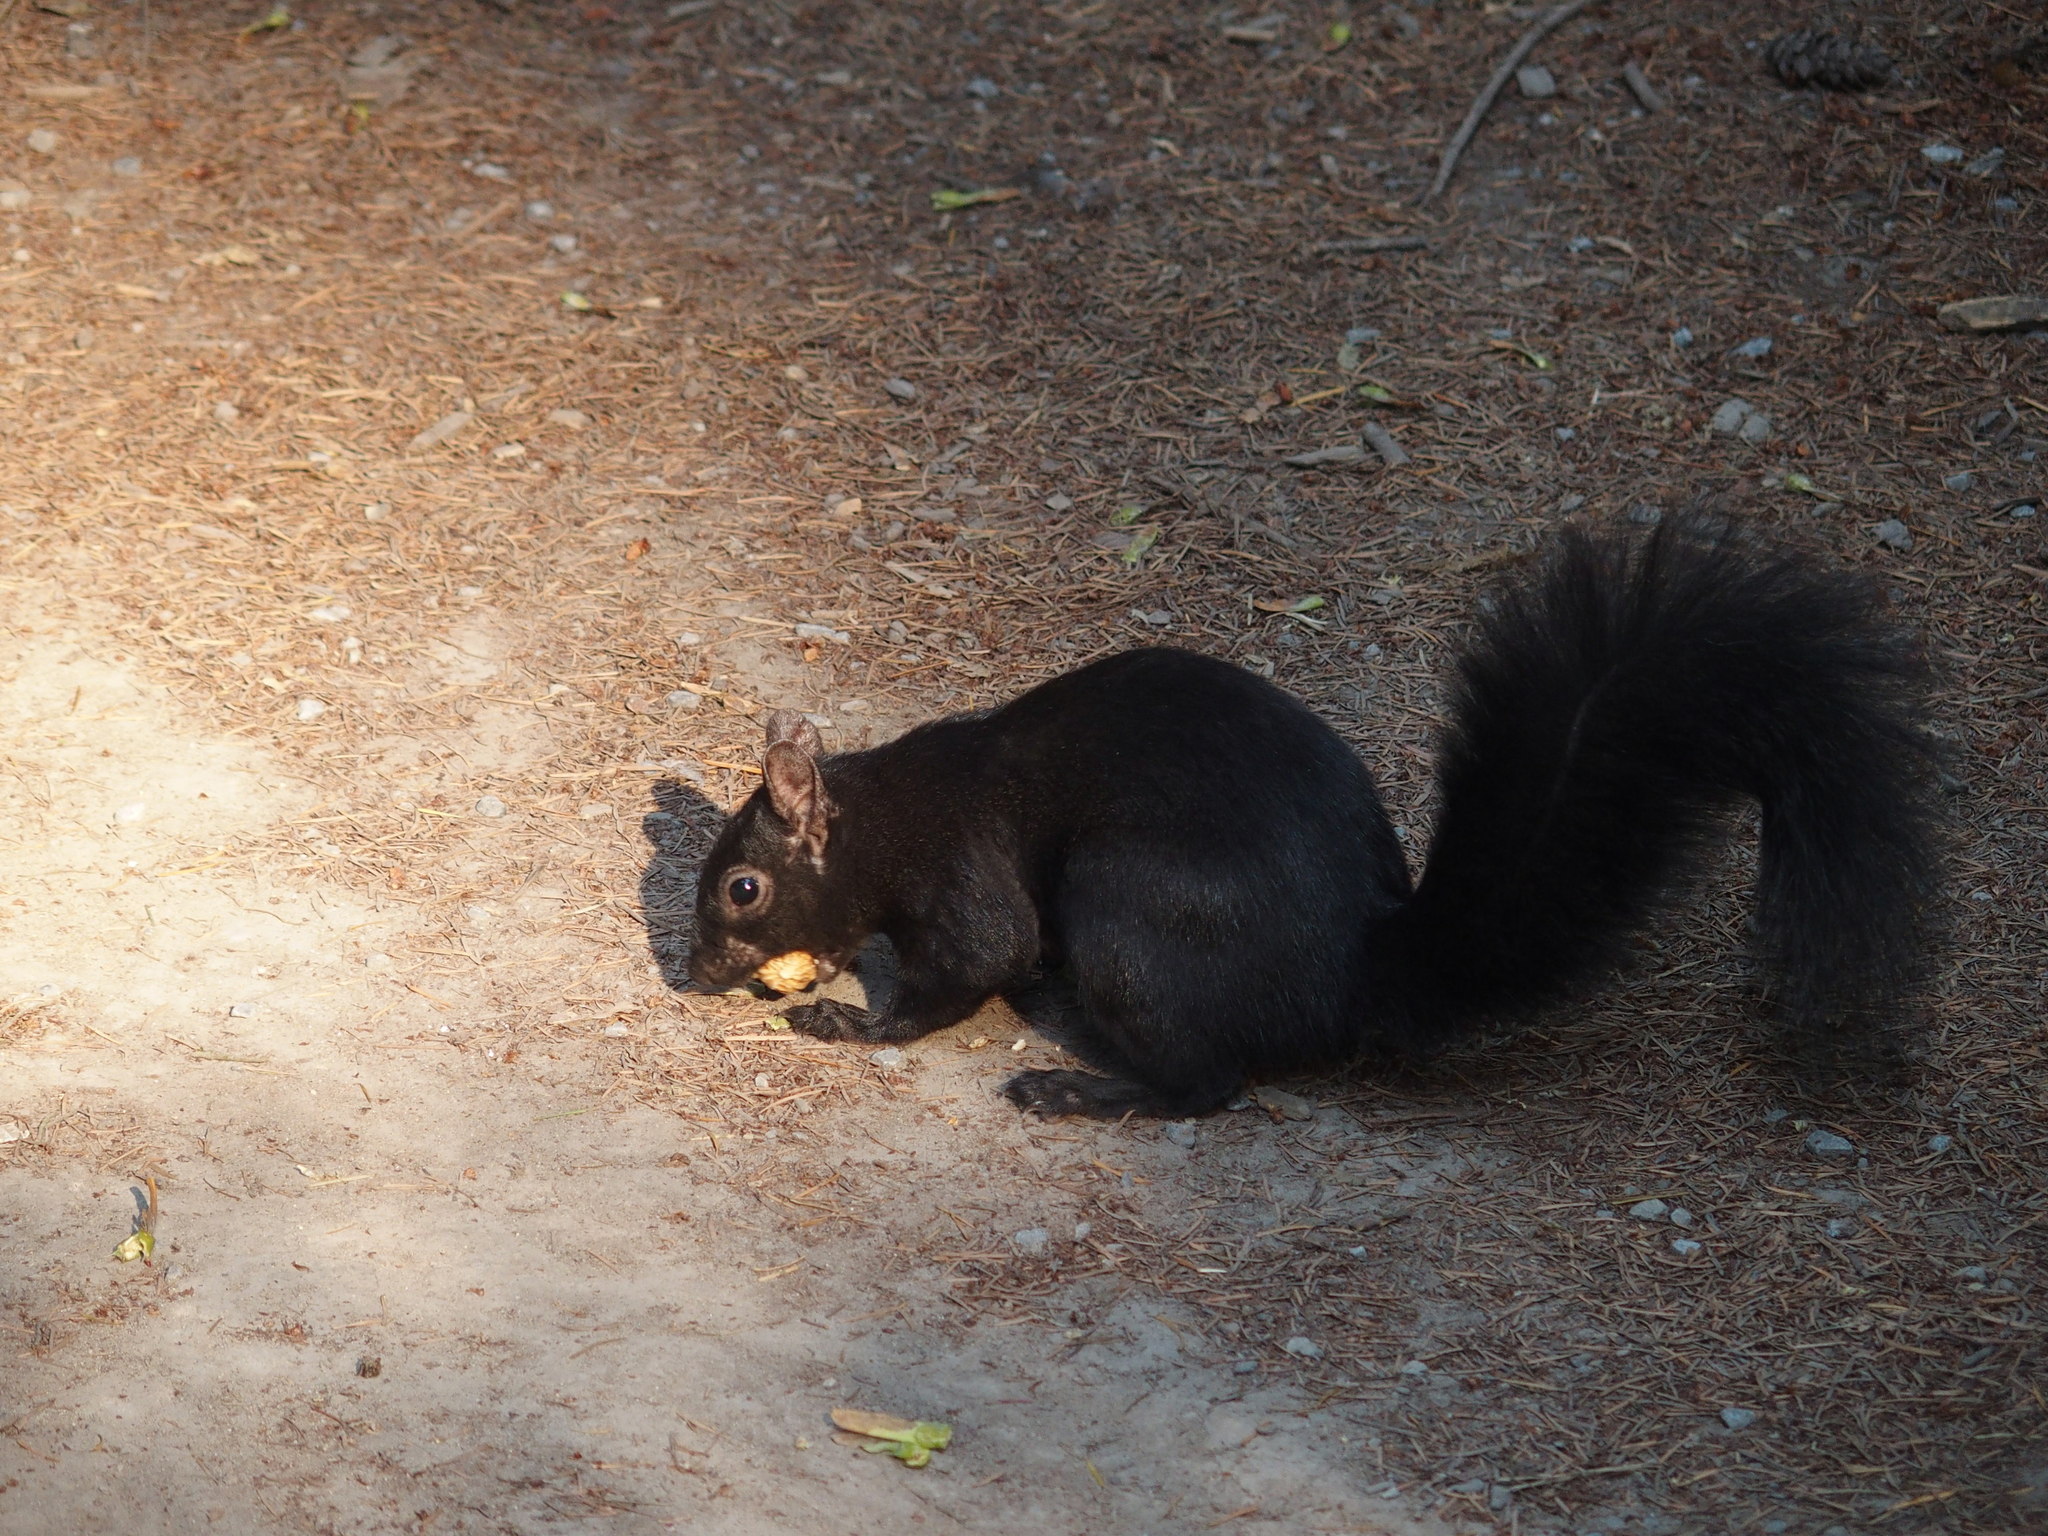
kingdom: Animalia
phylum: Chordata
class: Mammalia
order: Rodentia
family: Sciuridae
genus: Sciurus
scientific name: Sciurus carolinensis
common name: Eastern gray squirrel
